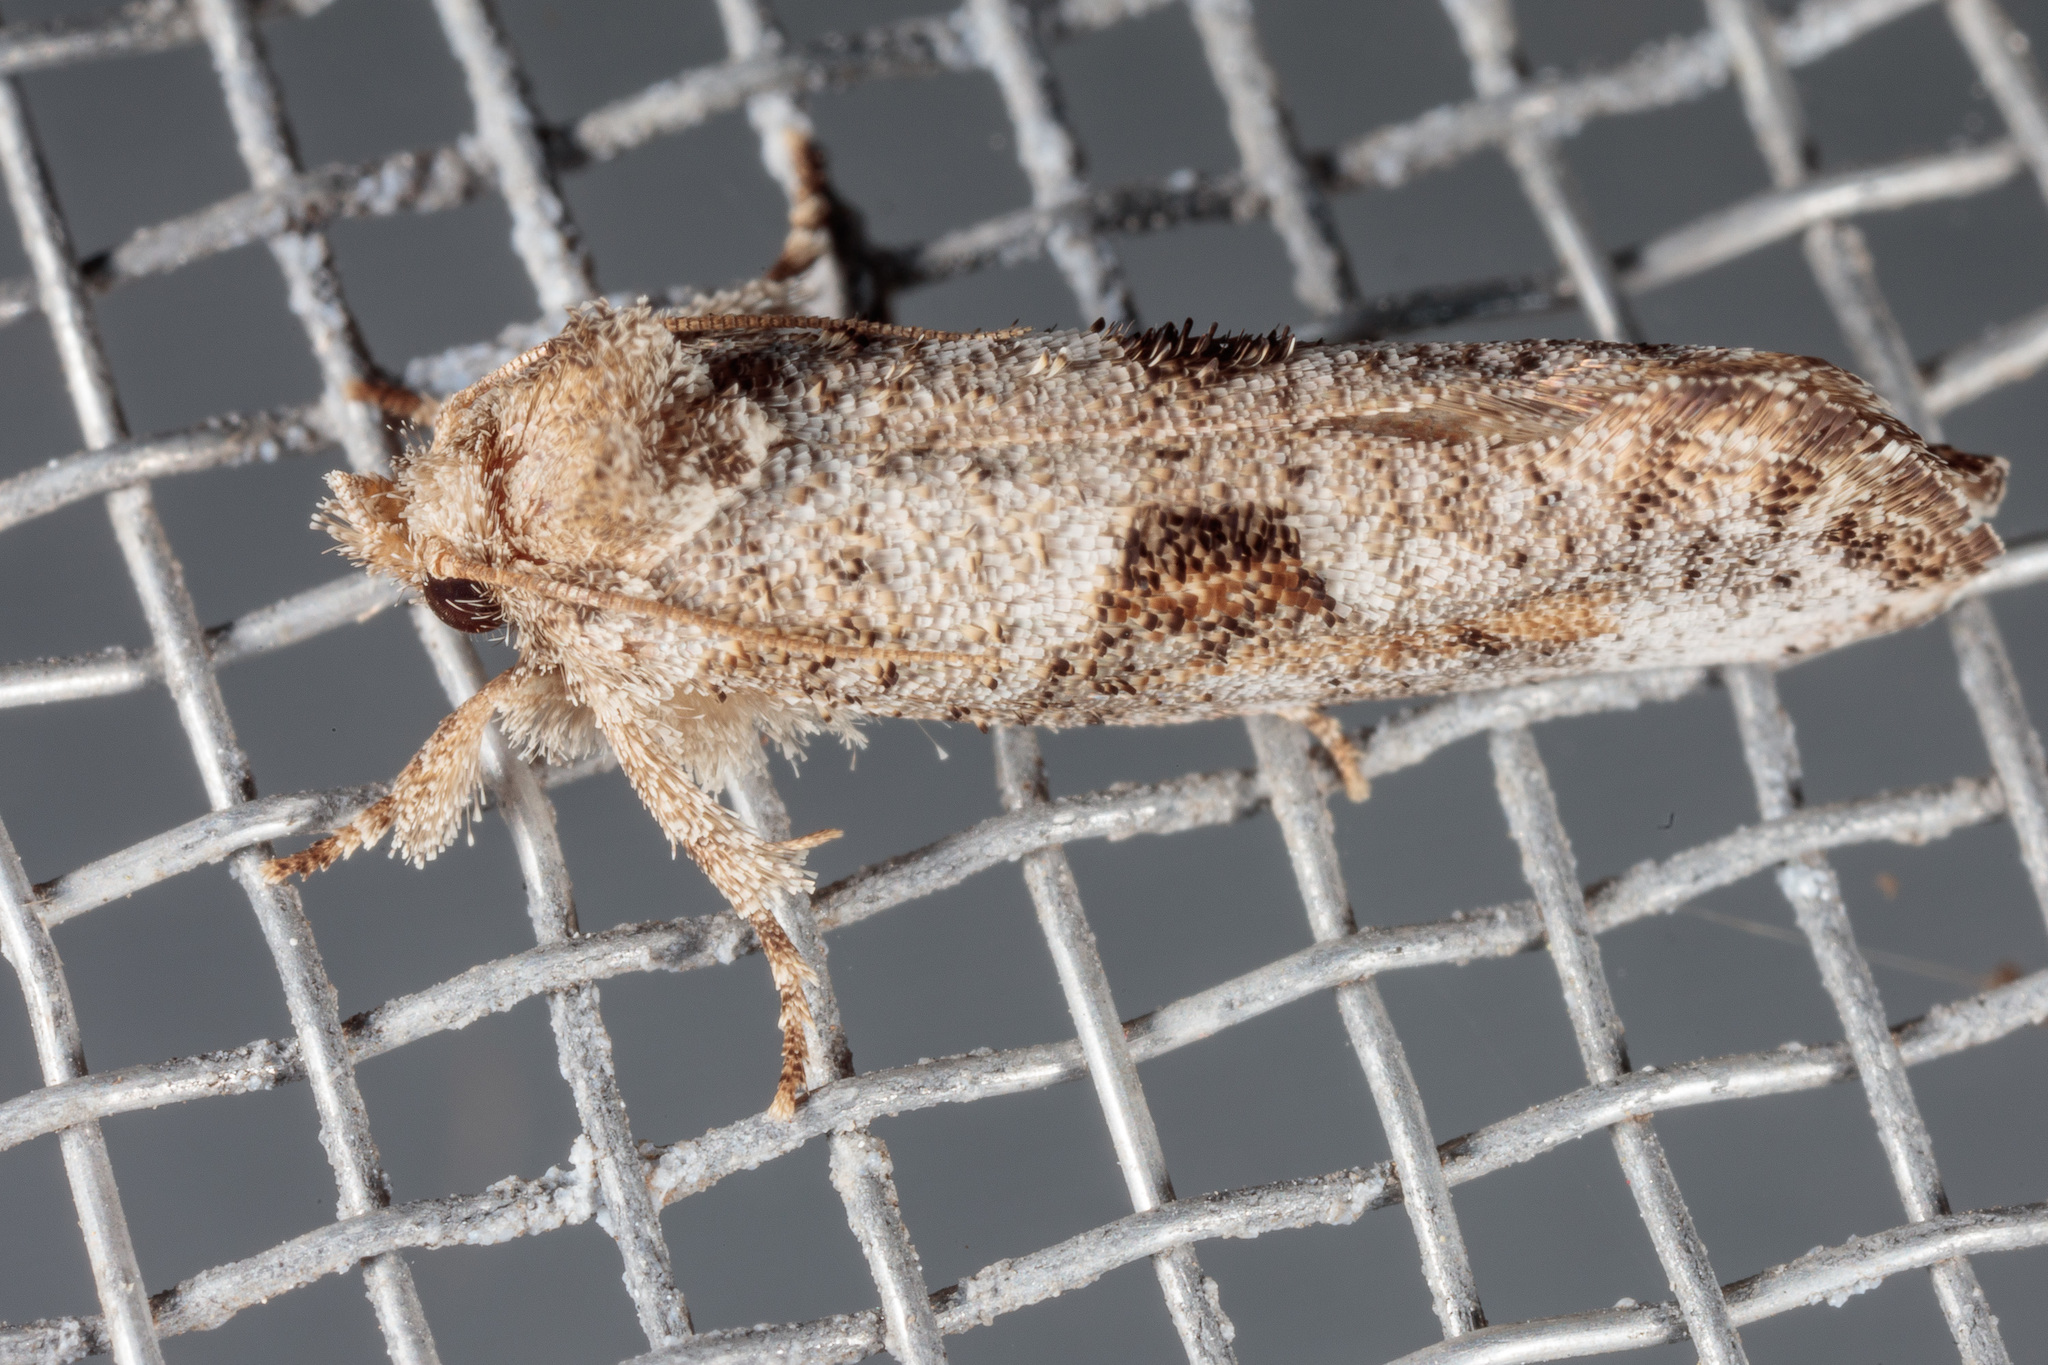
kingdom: Animalia
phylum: Arthropoda
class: Insecta
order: Lepidoptera
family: Tineidae
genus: Acrolophus
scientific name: Acrolophus piger
